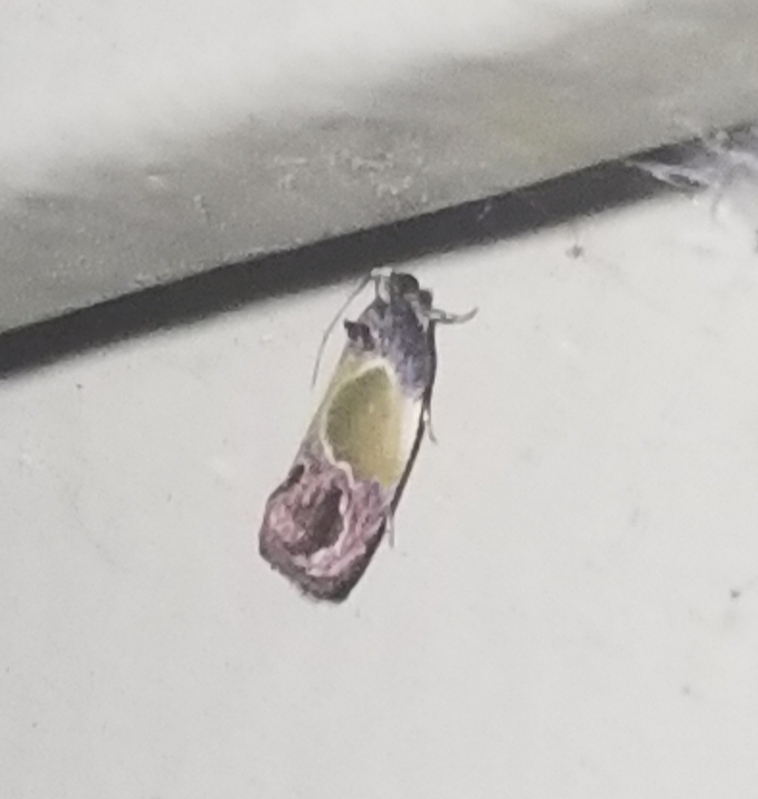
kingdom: Animalia
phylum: Arthropoda
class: Insecta
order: Lepidoptera
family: Tortricidae
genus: Eumarozia
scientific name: Eumarozia malachitana
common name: Sculptured moth
